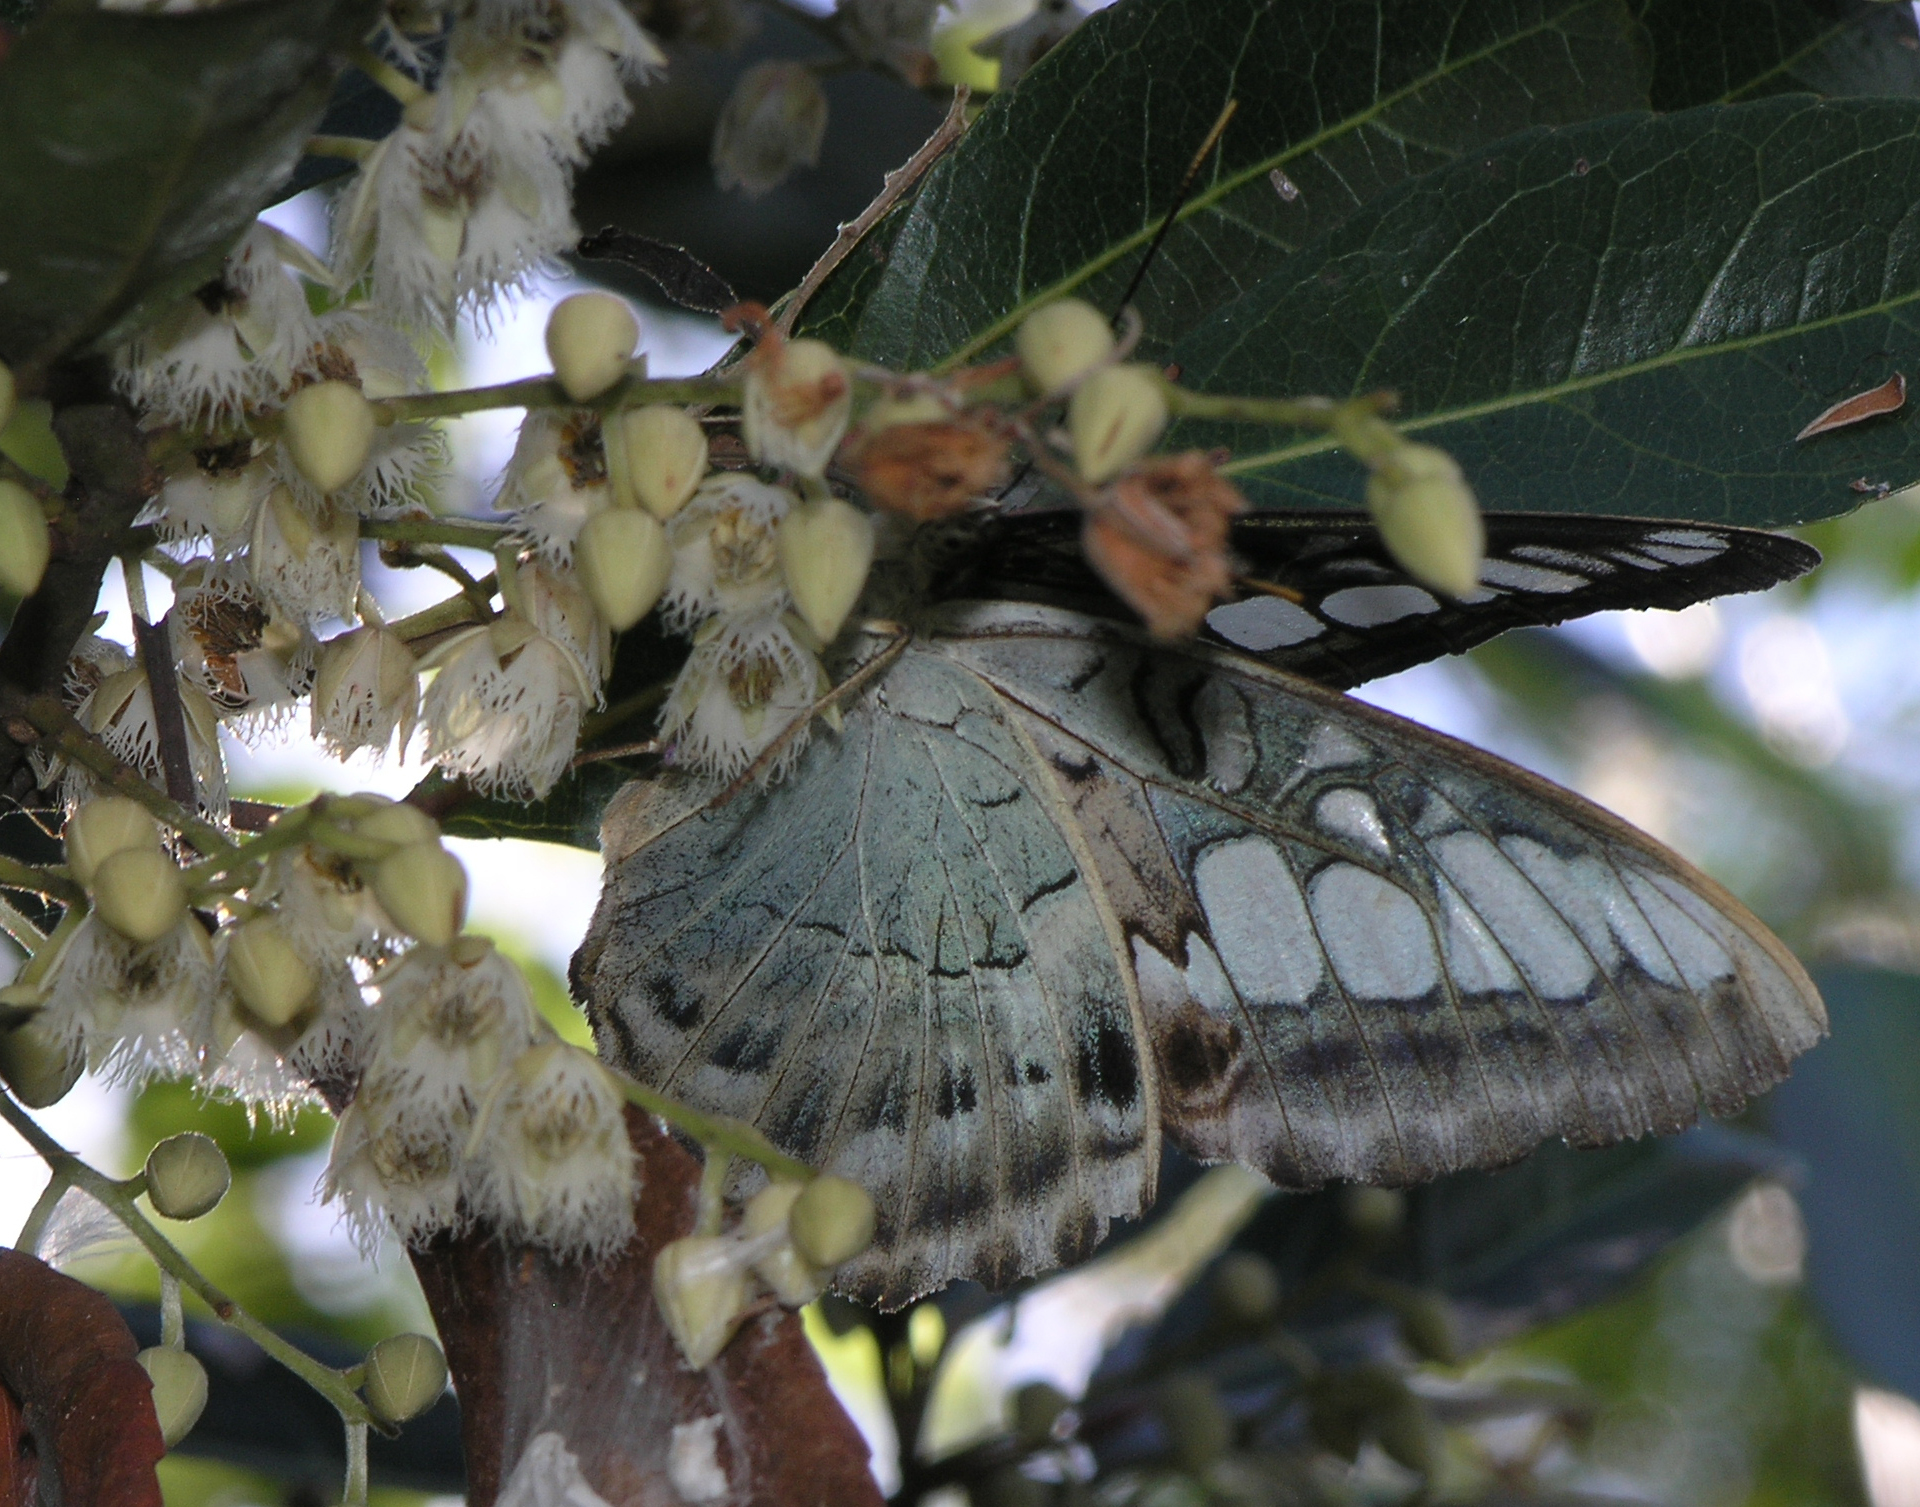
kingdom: Animalia
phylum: Arthropoda
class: Insecta
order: Lepidoptera
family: Nymphalidae
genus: Kallima
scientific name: Kallima sylvia
